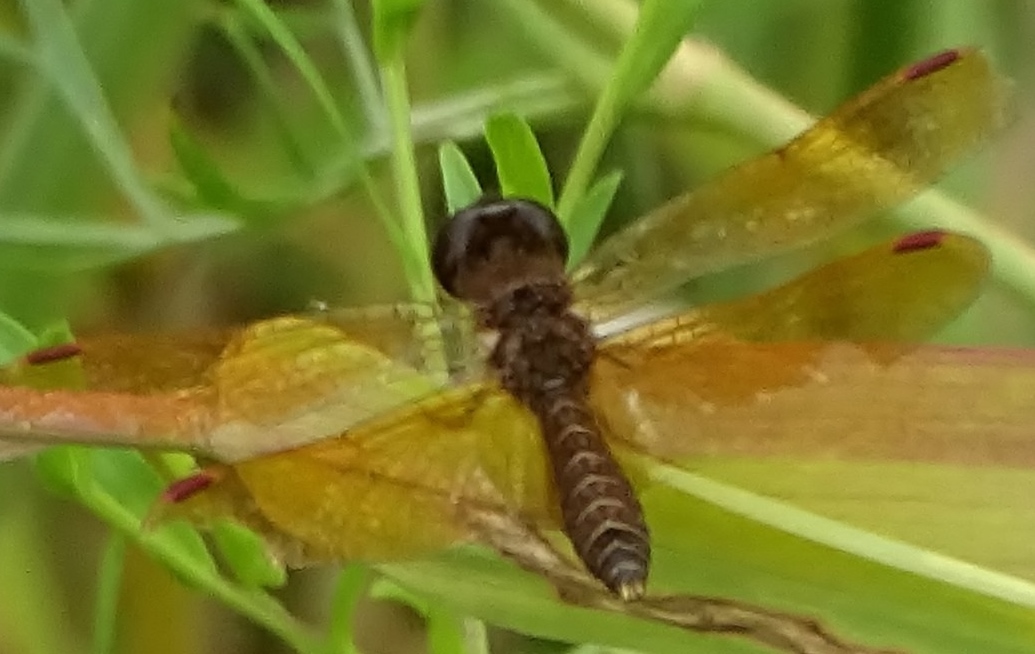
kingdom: Animalia
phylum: Arthropoda
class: Insecta
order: Odonata
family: Libellulidae
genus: Perithemis
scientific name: Perithemis tenera
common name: Eastern amberwing
